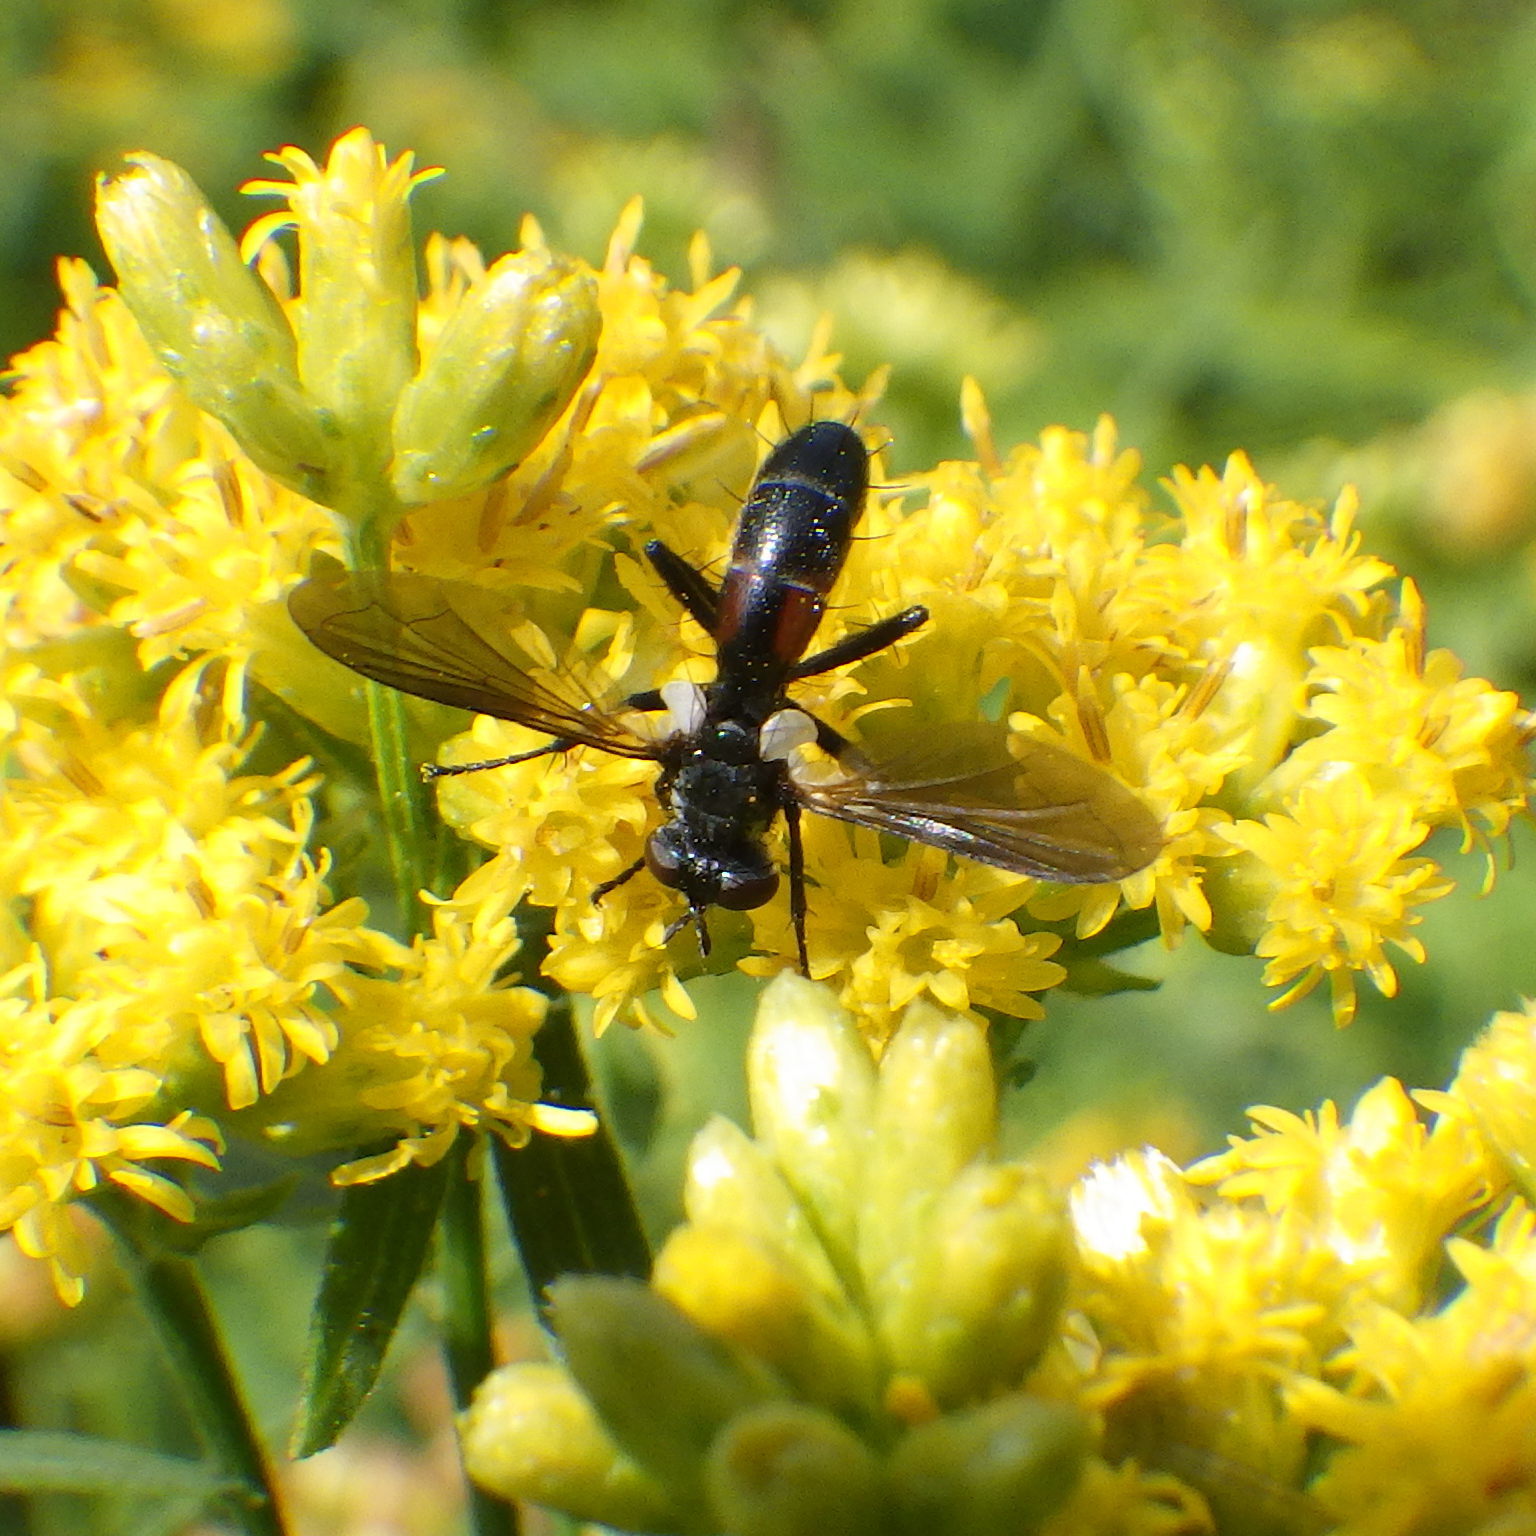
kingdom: Animalia
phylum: Arthropoda
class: Insecta
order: Diptera
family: Tachinidae
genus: Cylindromyia
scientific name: Cylindromyia interrupta
